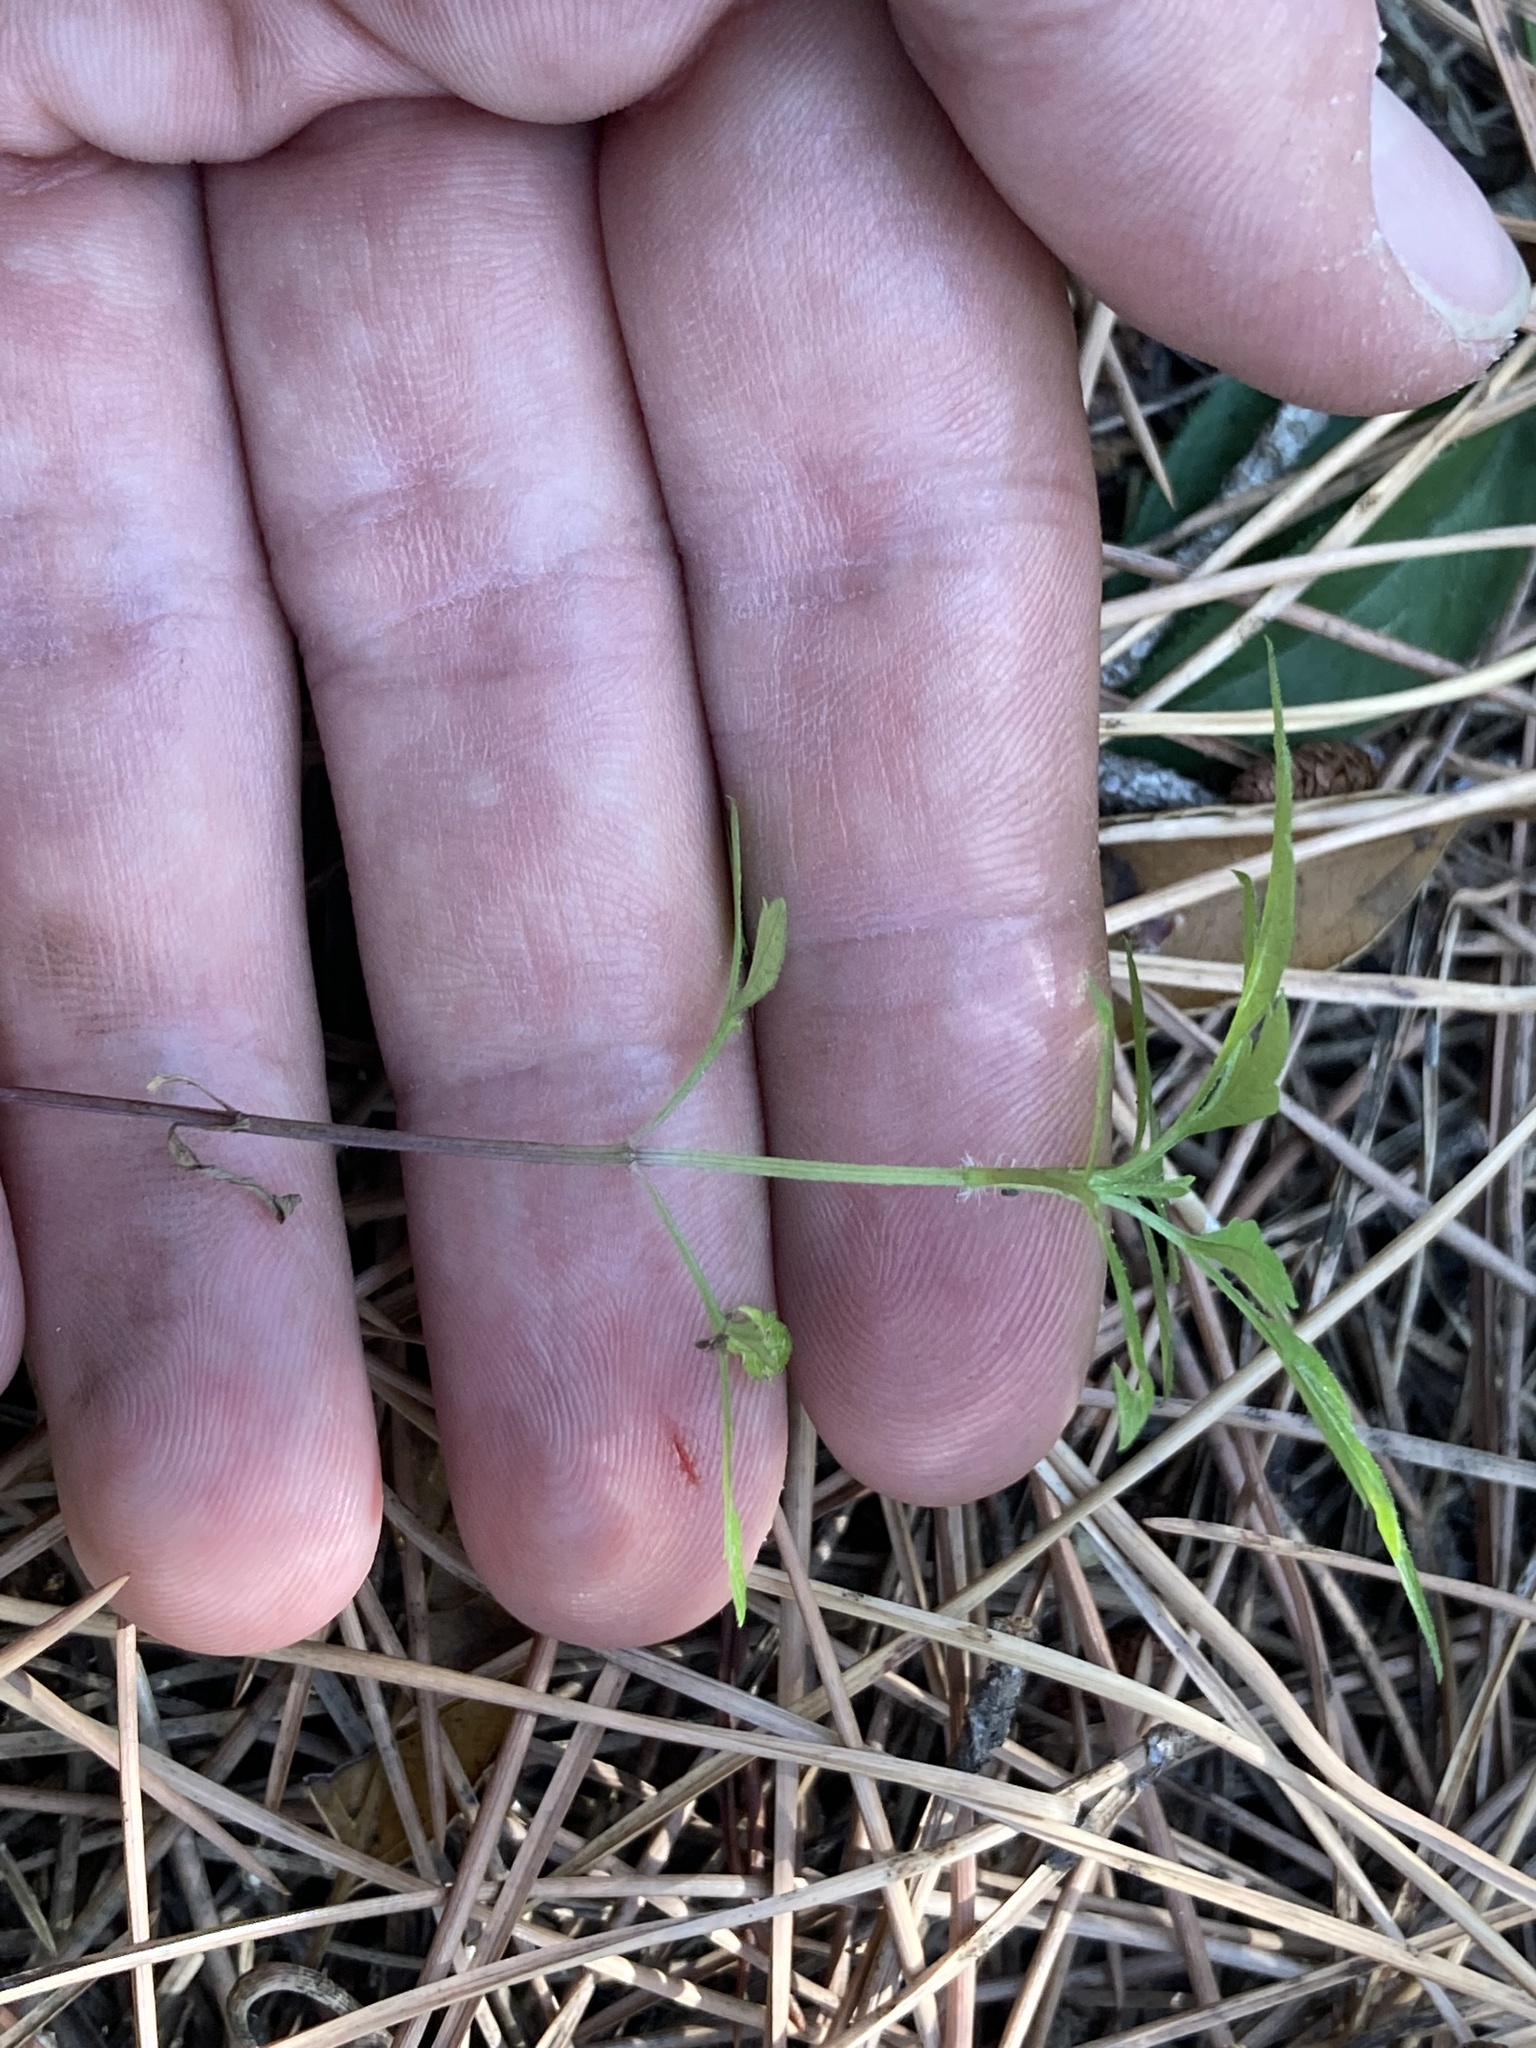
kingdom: Plantae
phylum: Tracheophyta
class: Magnoliopsida
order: Asterales
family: Asteraceae
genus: Bidens
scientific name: Bidens subalternans
